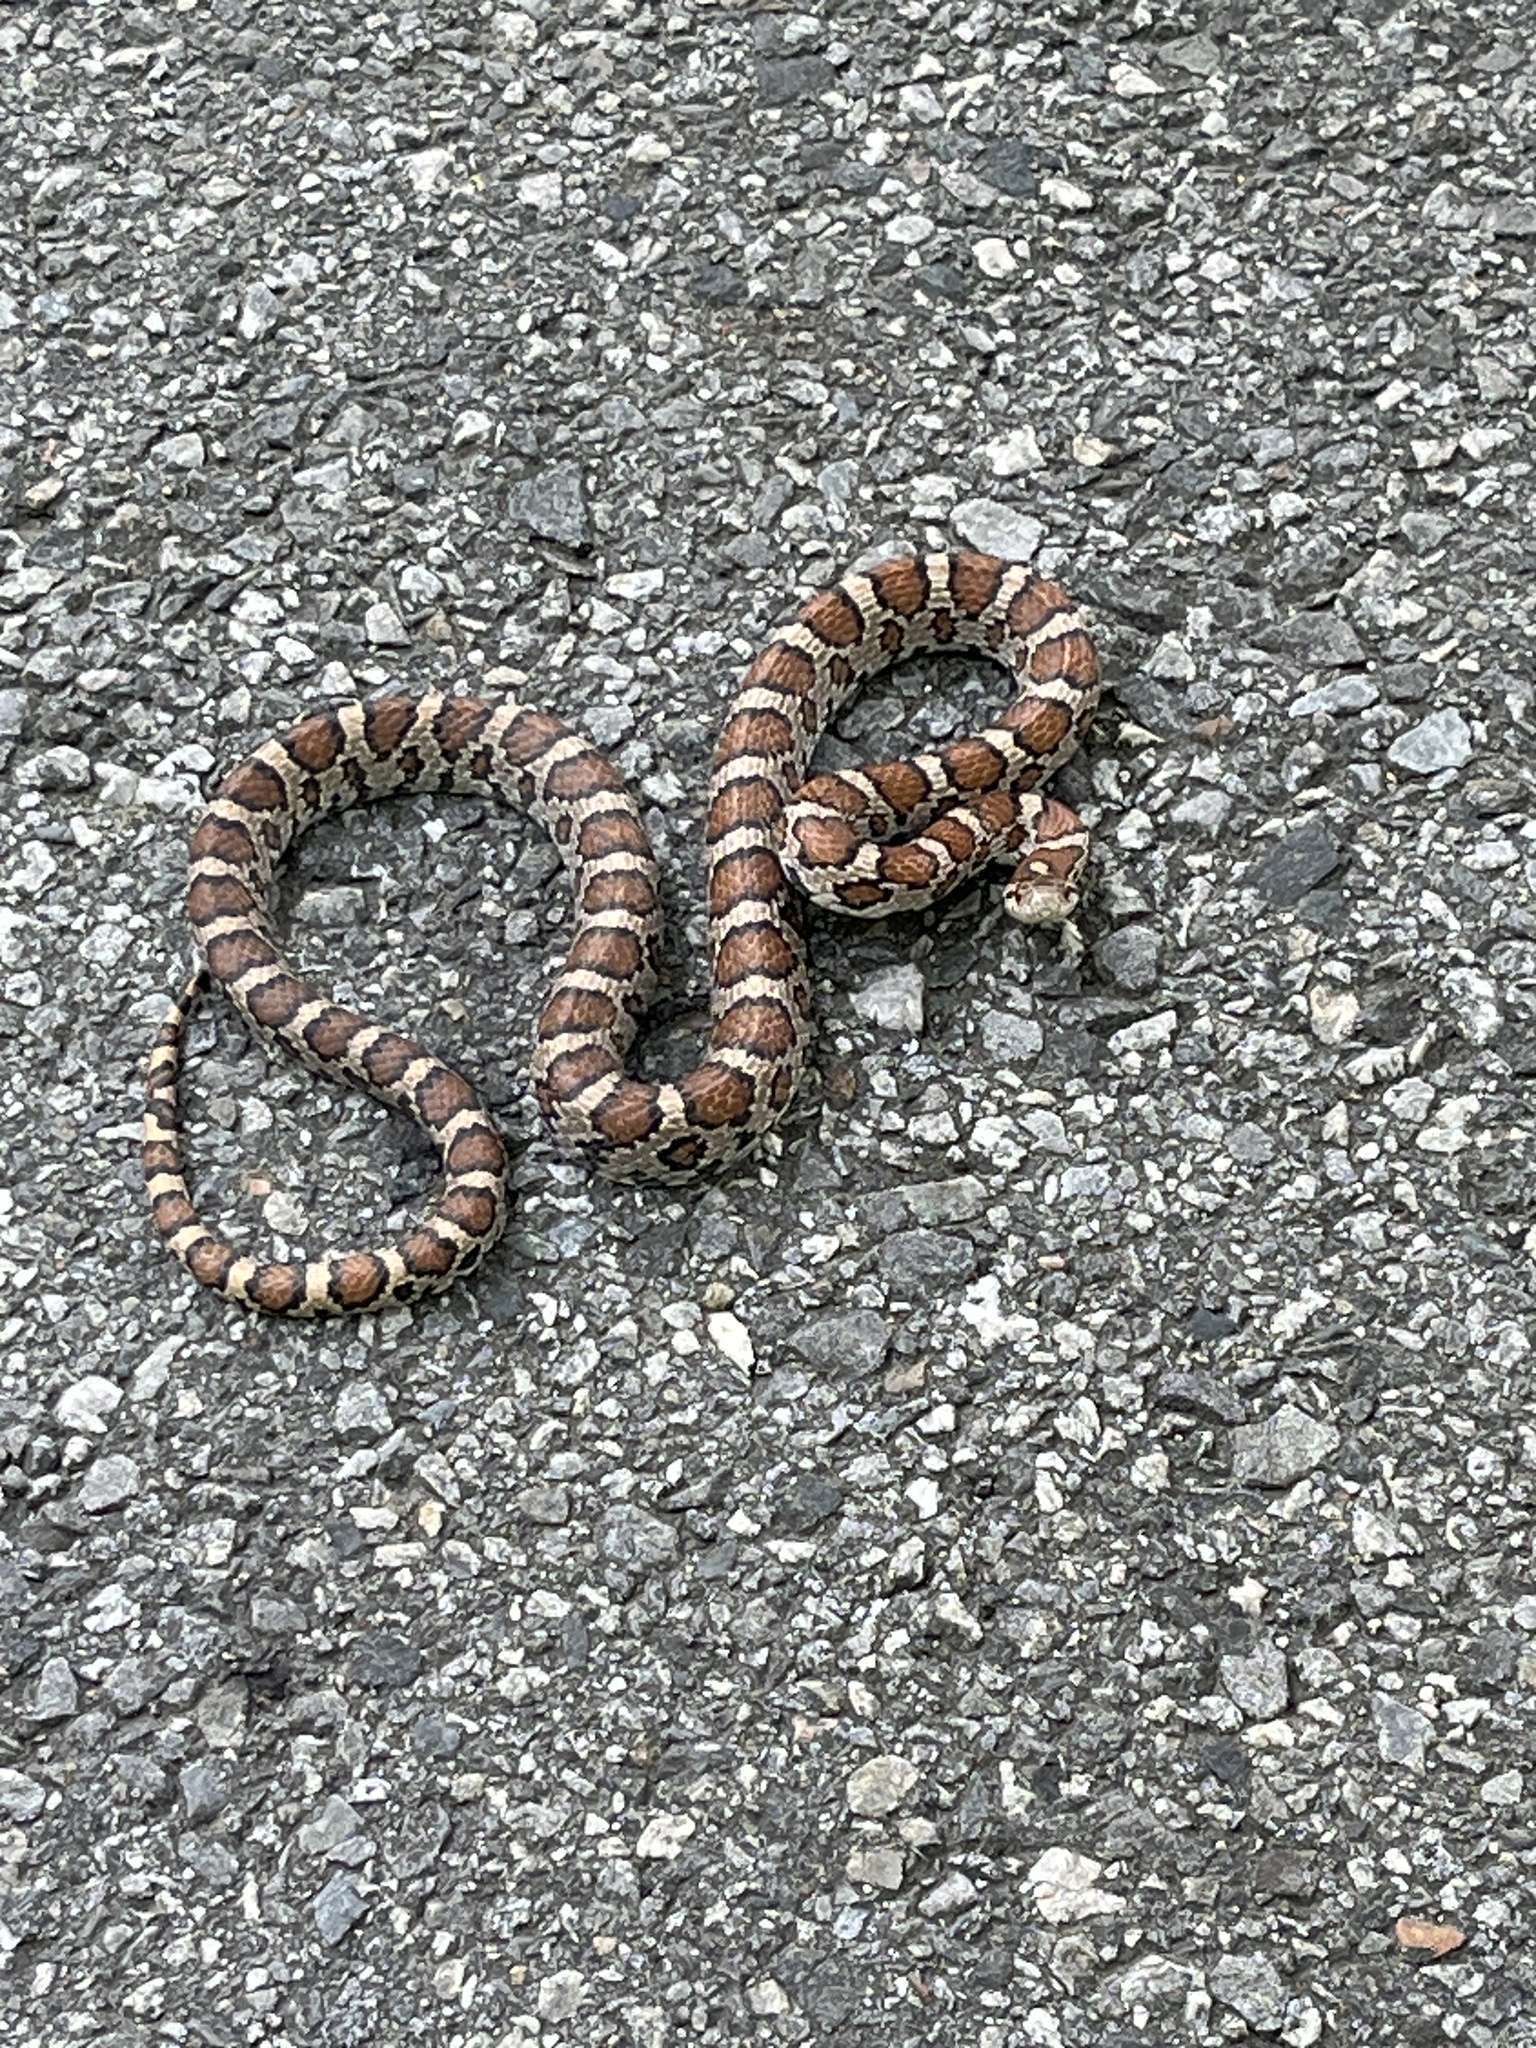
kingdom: Animalia
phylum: Chordata
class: Squamata
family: Colubridae
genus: Lampropeltis
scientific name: Lampropeltis triangulum
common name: Eastern milksnake
